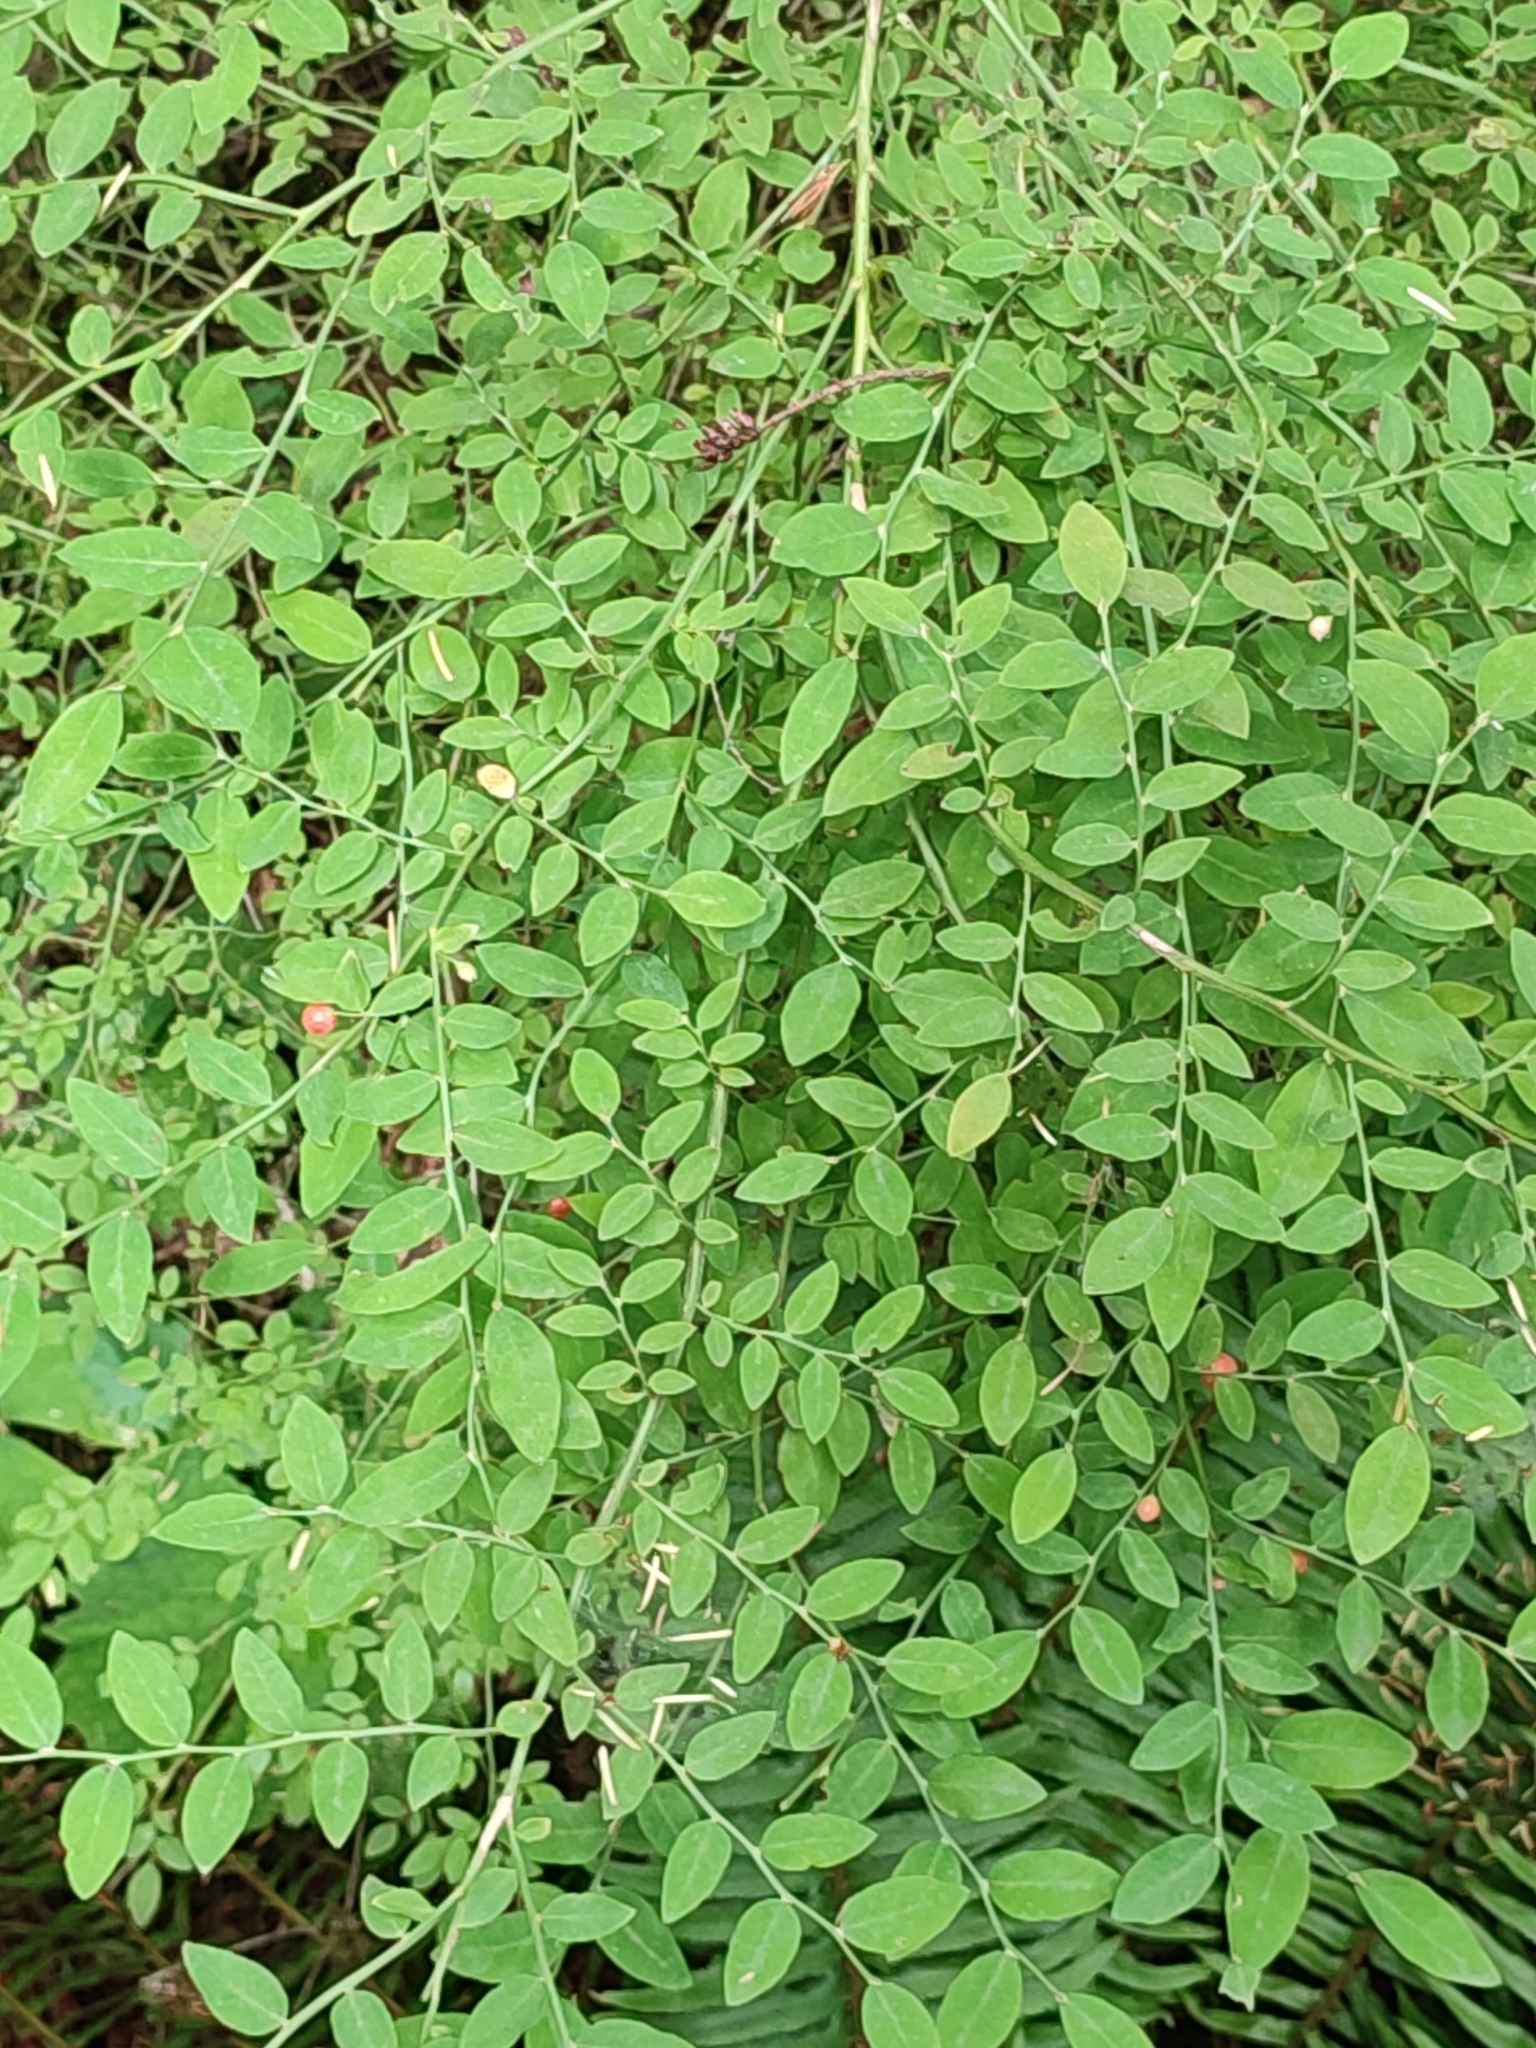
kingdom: Plantae
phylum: Tracheophyta
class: Magnoliopsida
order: Ericales
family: Ericaceae
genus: Vaccinium
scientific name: Vaccinium parvifolium
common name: Red-huckleberry
